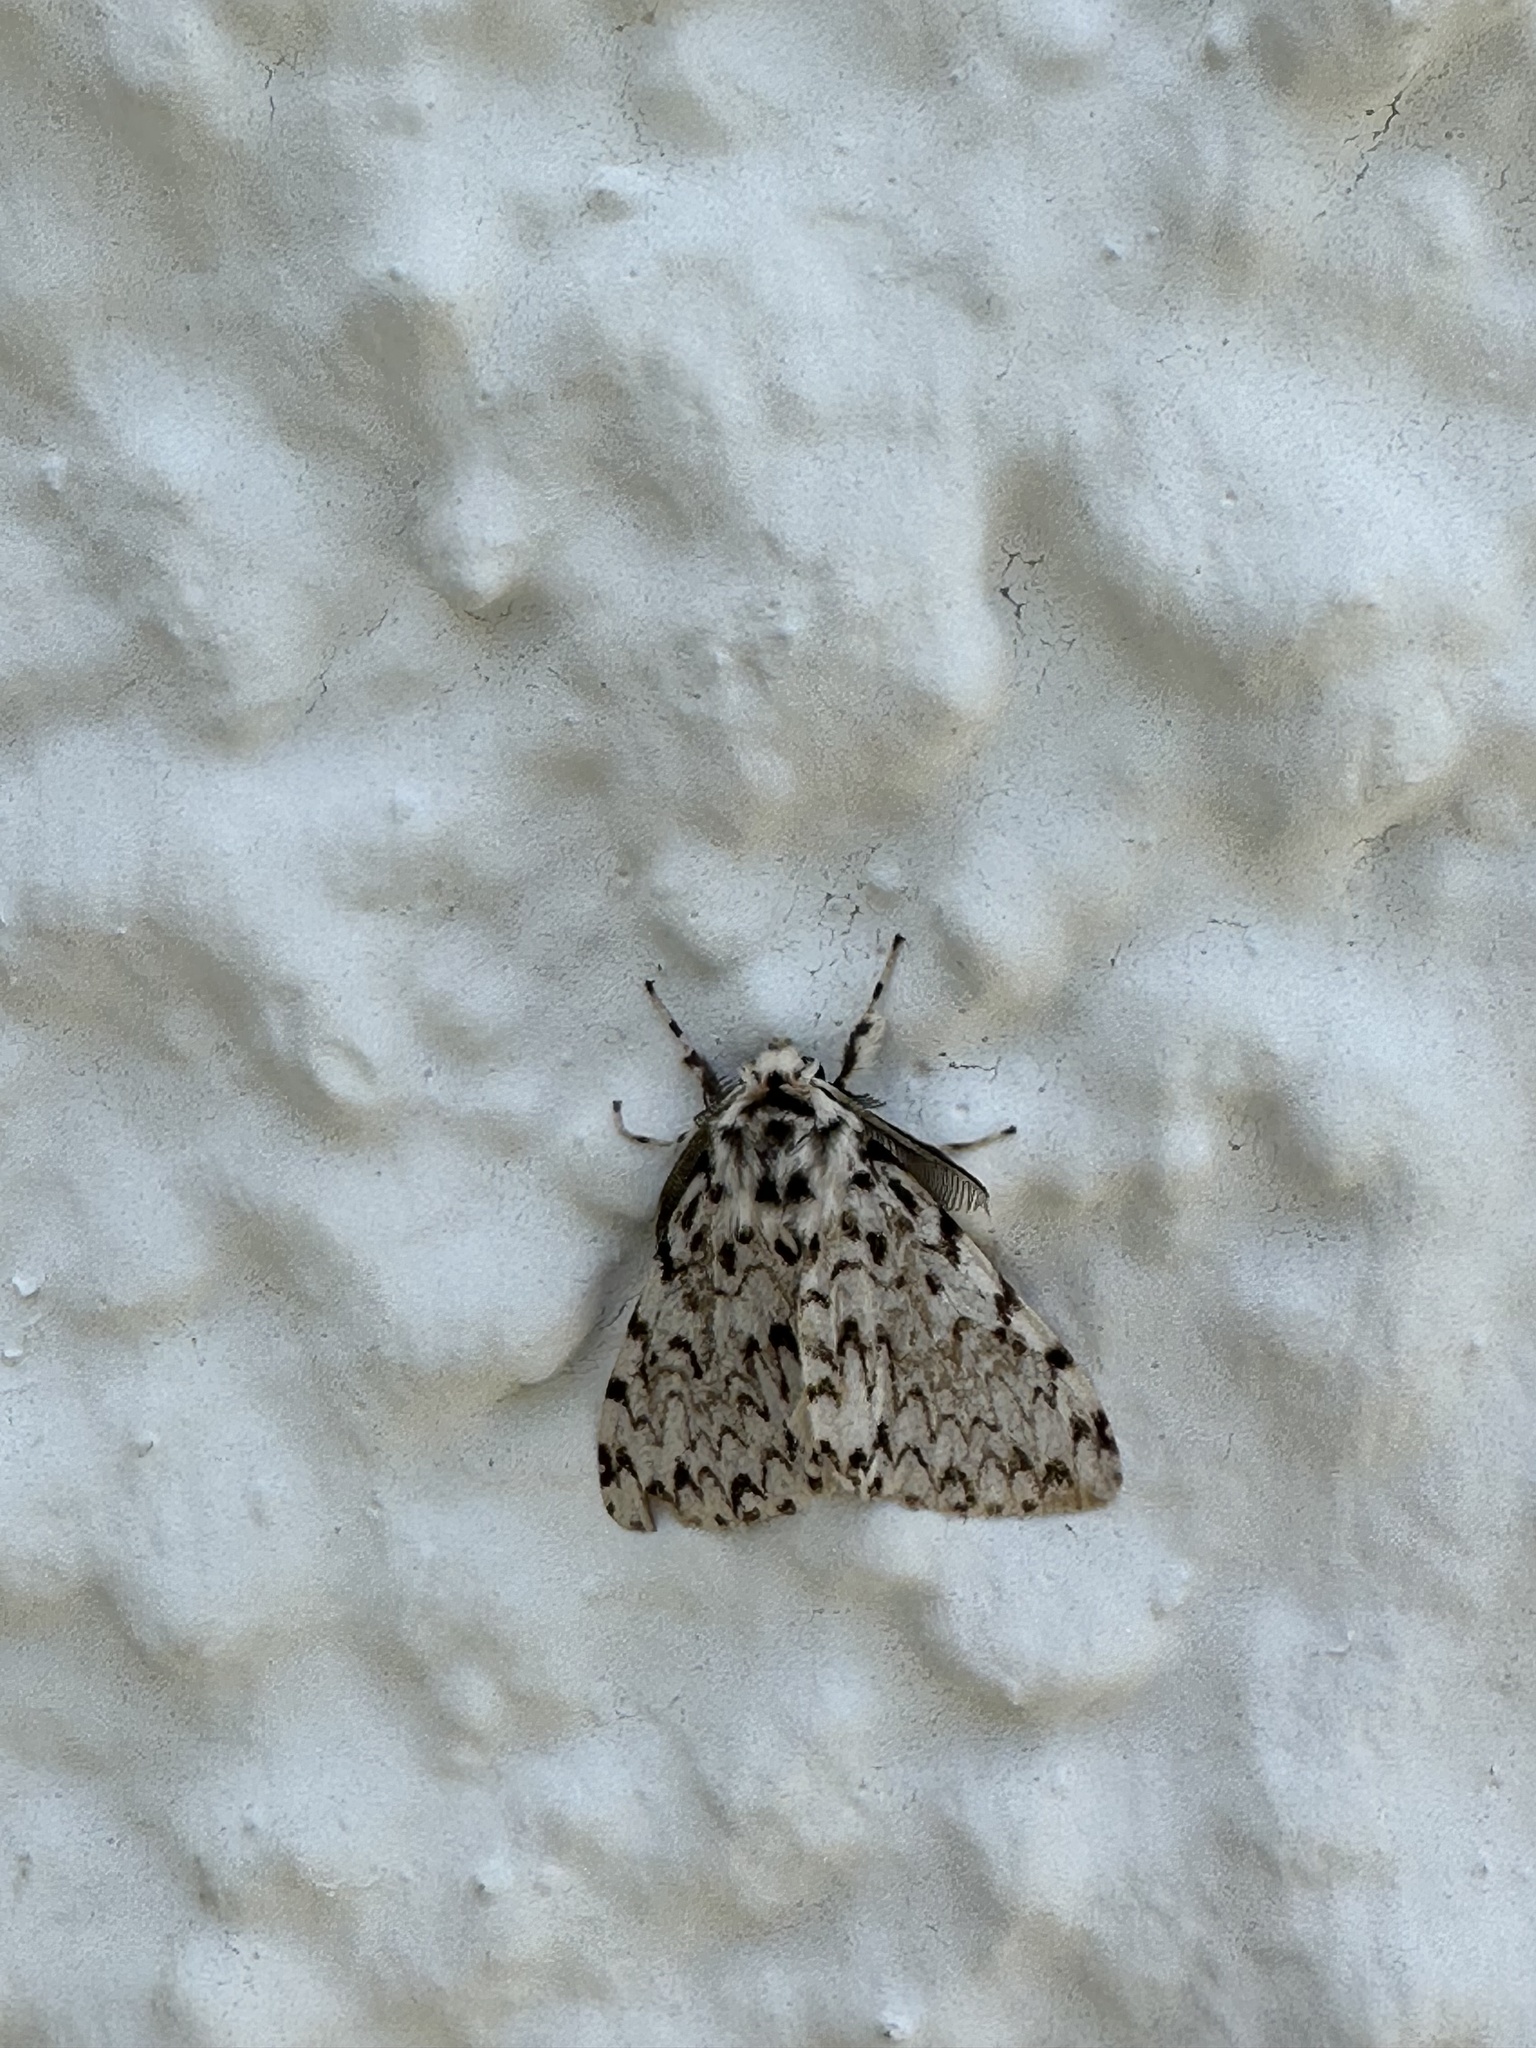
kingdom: Animalia
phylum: Arthropoda
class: Insecta
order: Lepidoptera
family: Erebidae
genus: Lymantria
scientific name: Lymantria monacha
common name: Black arches
